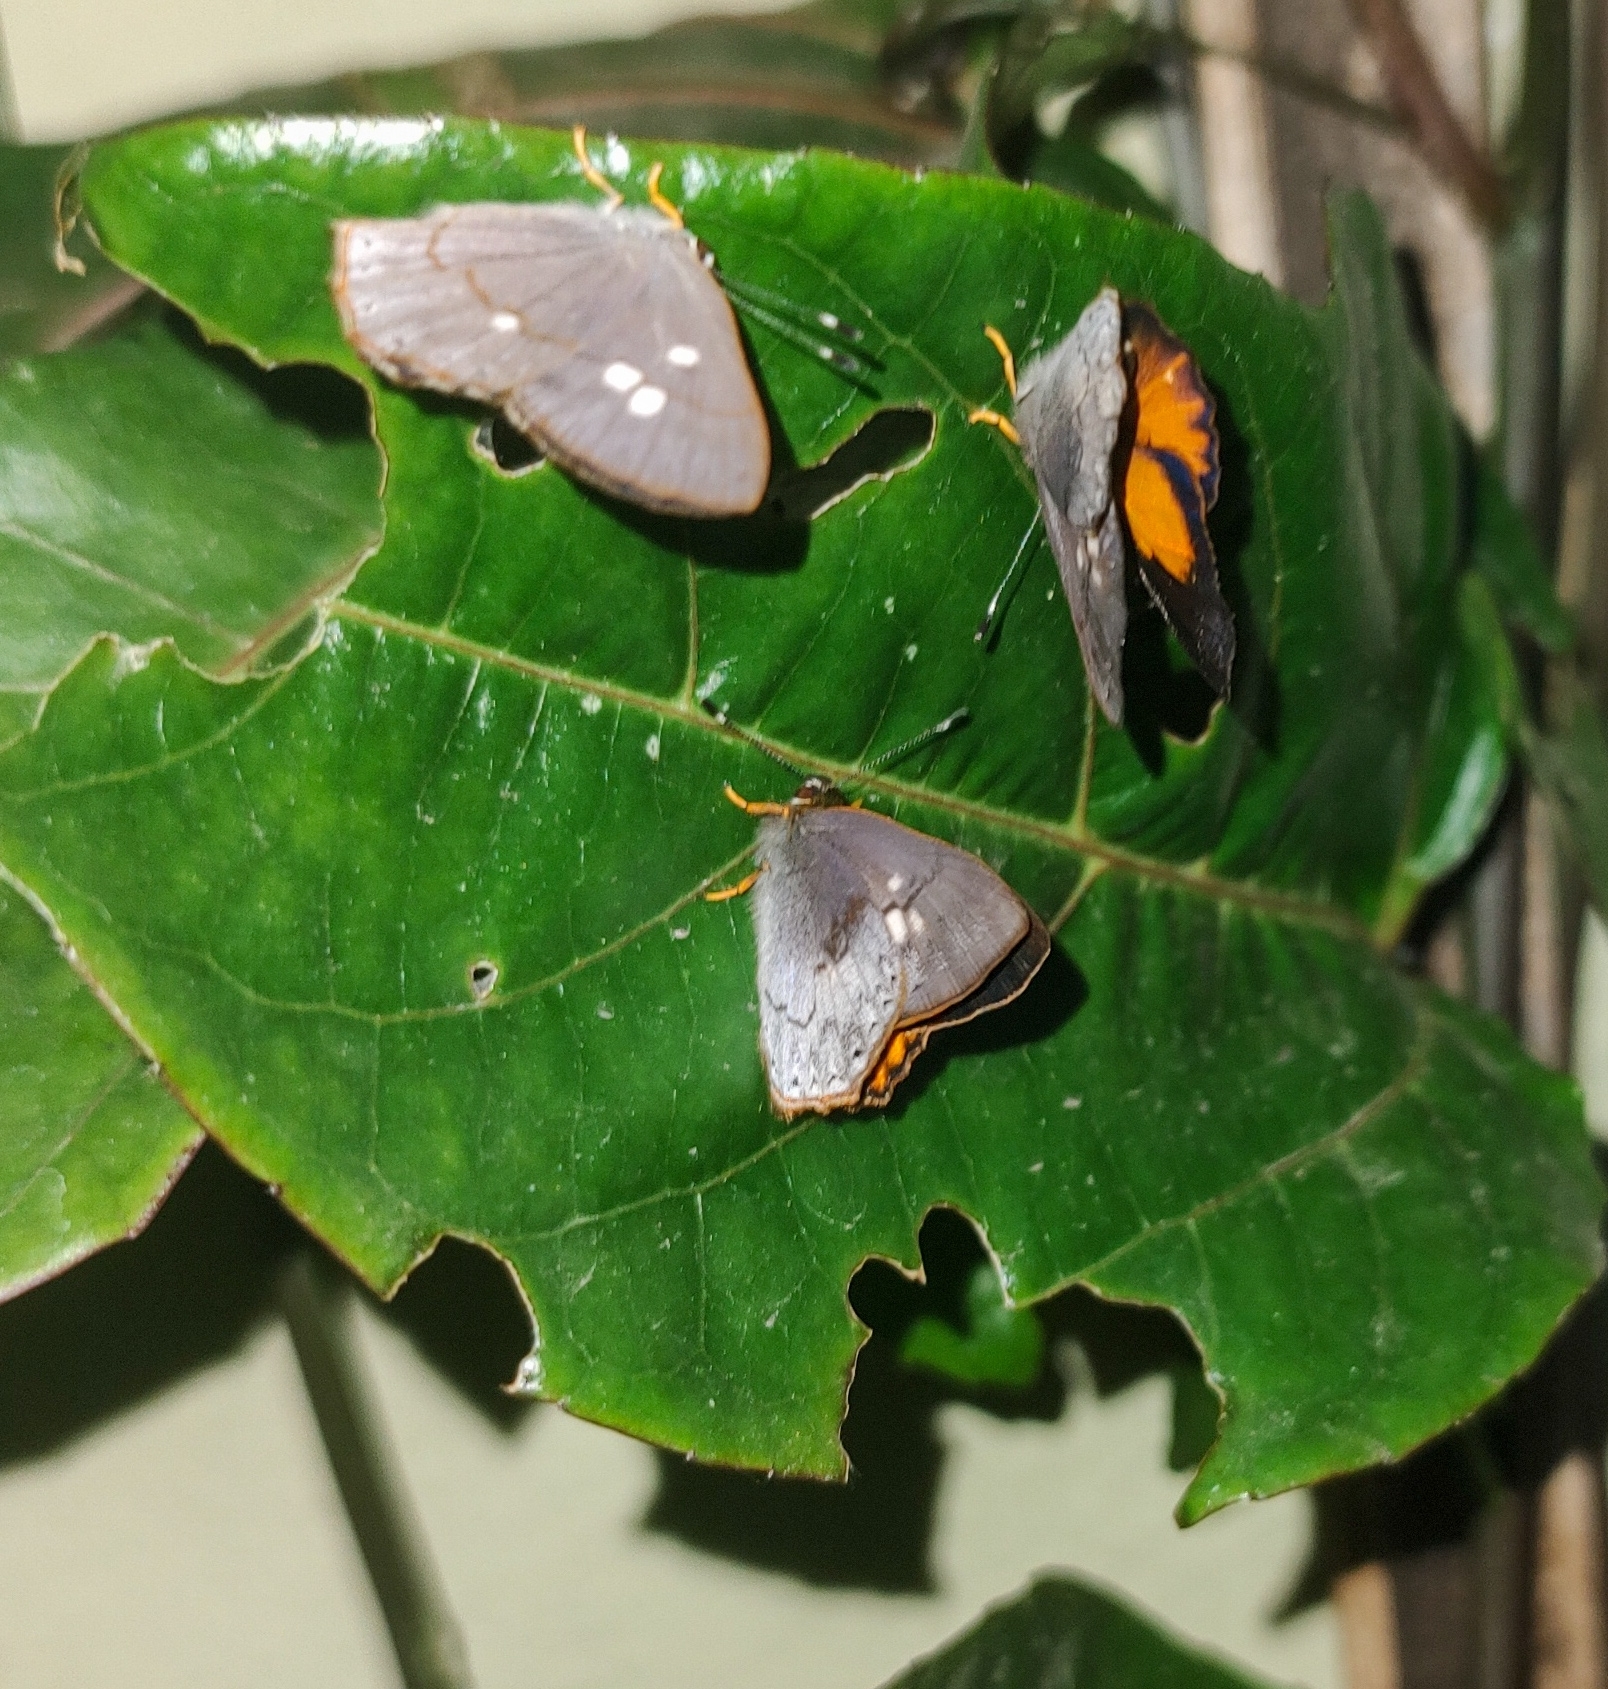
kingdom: Animalia
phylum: Arthropoda
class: Insecta
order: Lepidoptera
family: Lycaenidae
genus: Euselasia
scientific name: Euselasia euploea
